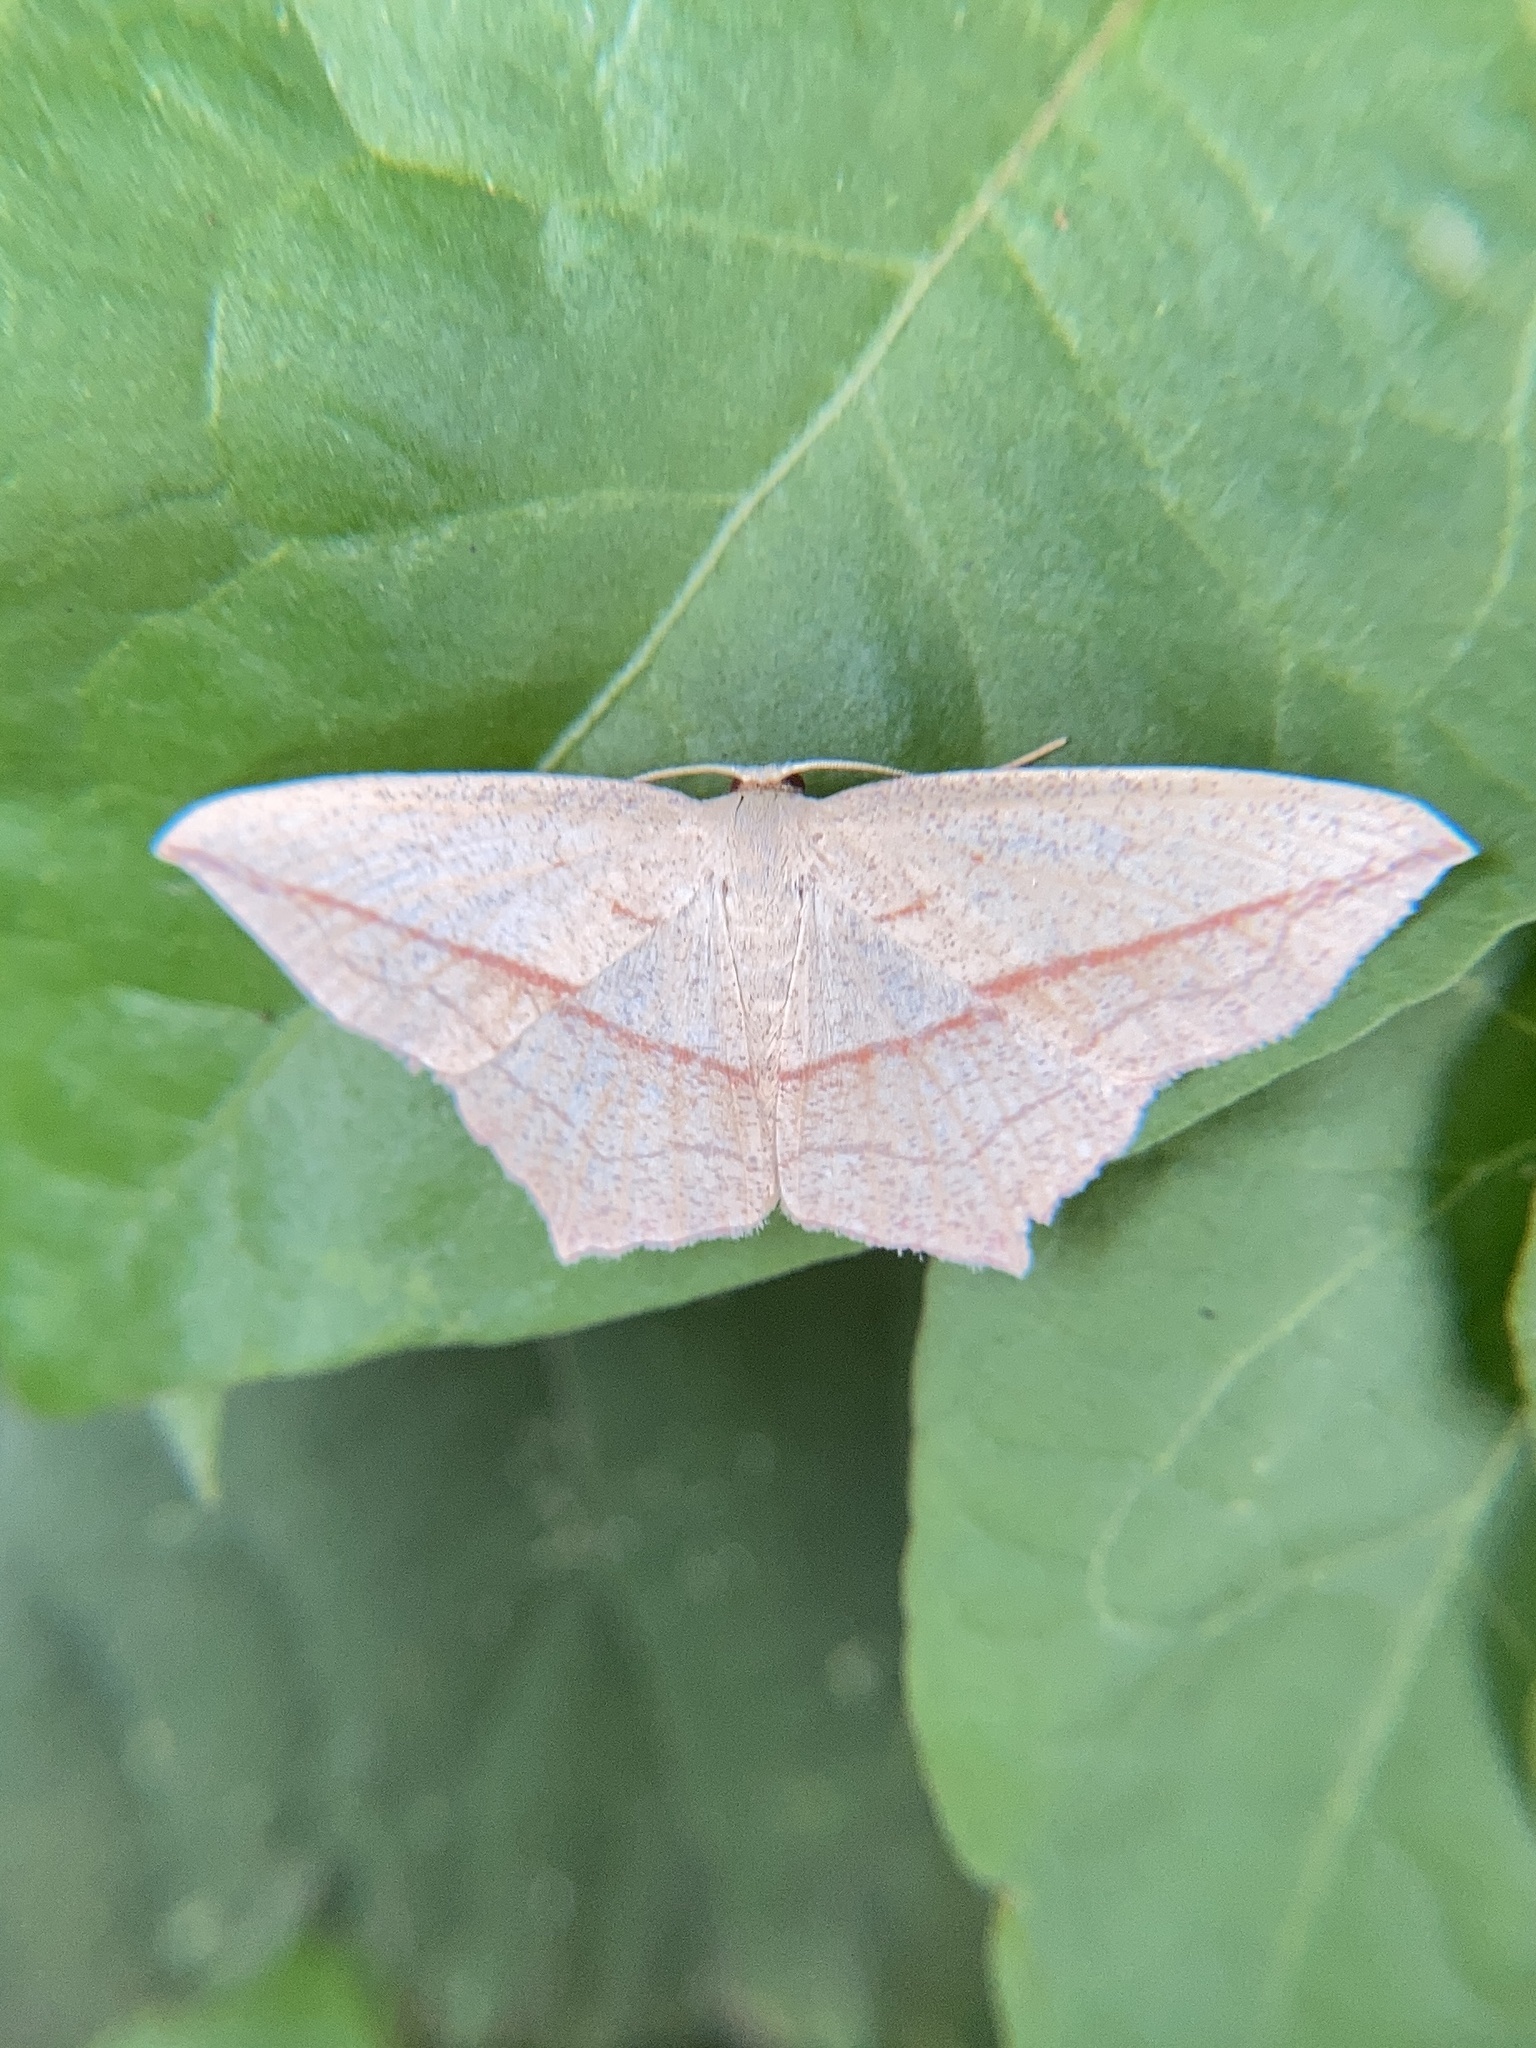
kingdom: Animalia
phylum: Arthropoda
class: Insecta
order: Lepidoptera
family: Geometridae
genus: Timandra
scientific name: Timandra comae
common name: Blood-vein
